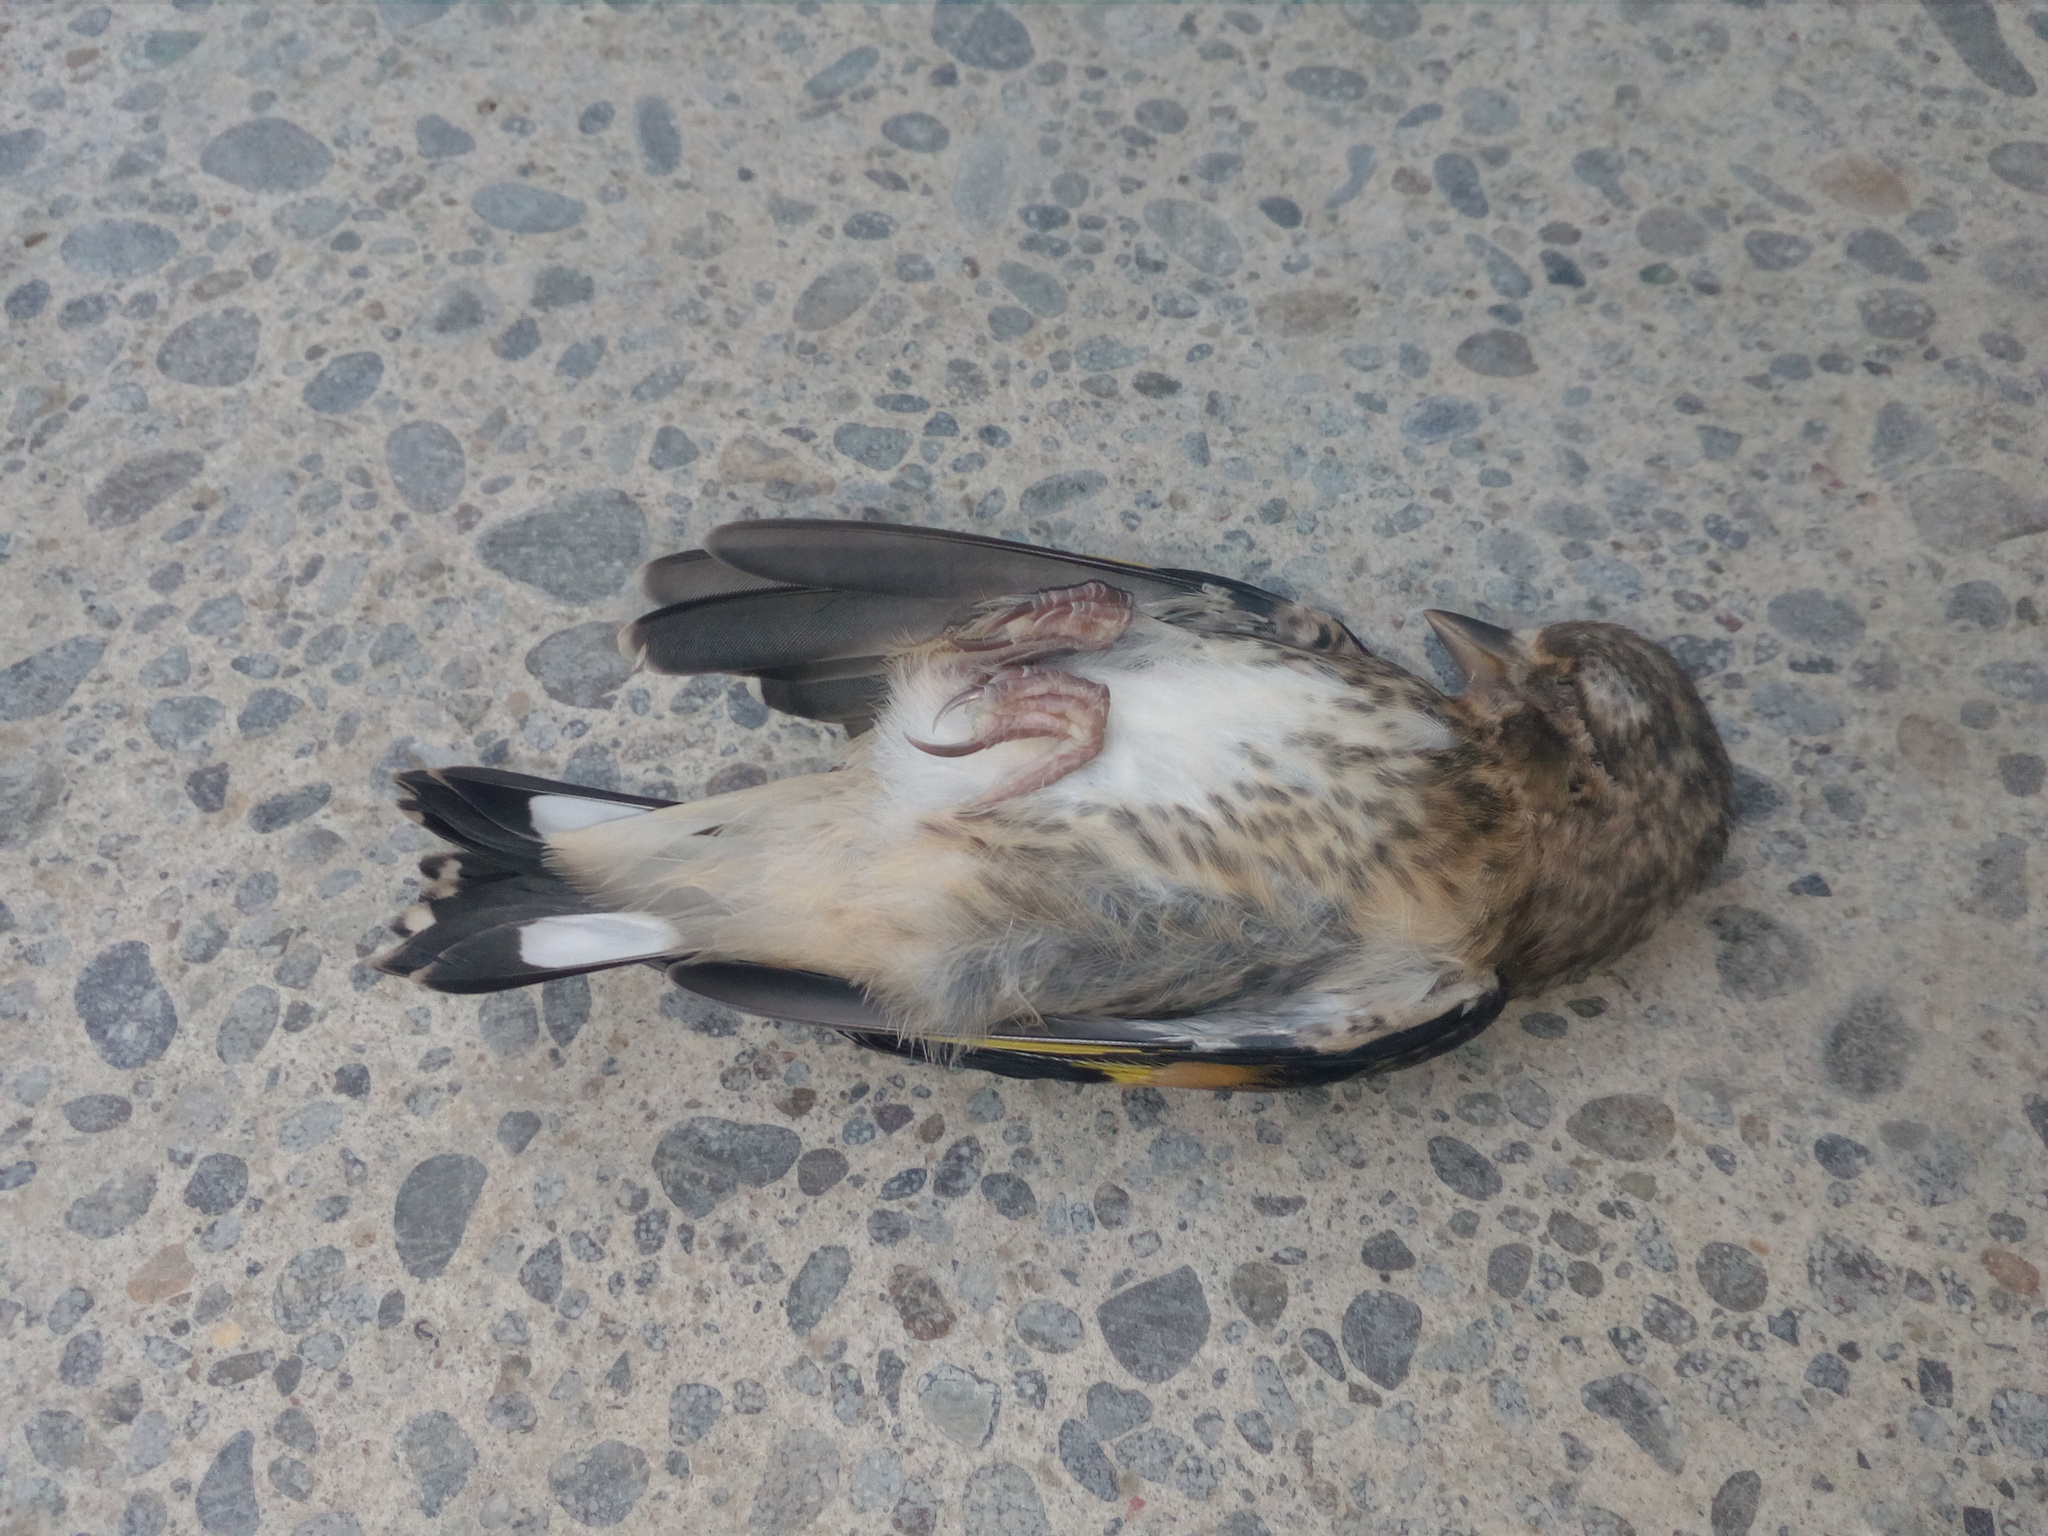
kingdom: Animalia
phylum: Chordata
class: Aves
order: Passeriformes
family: Fringillidae
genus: Carduelis
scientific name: Carduelis carduelis
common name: European goldfinch
